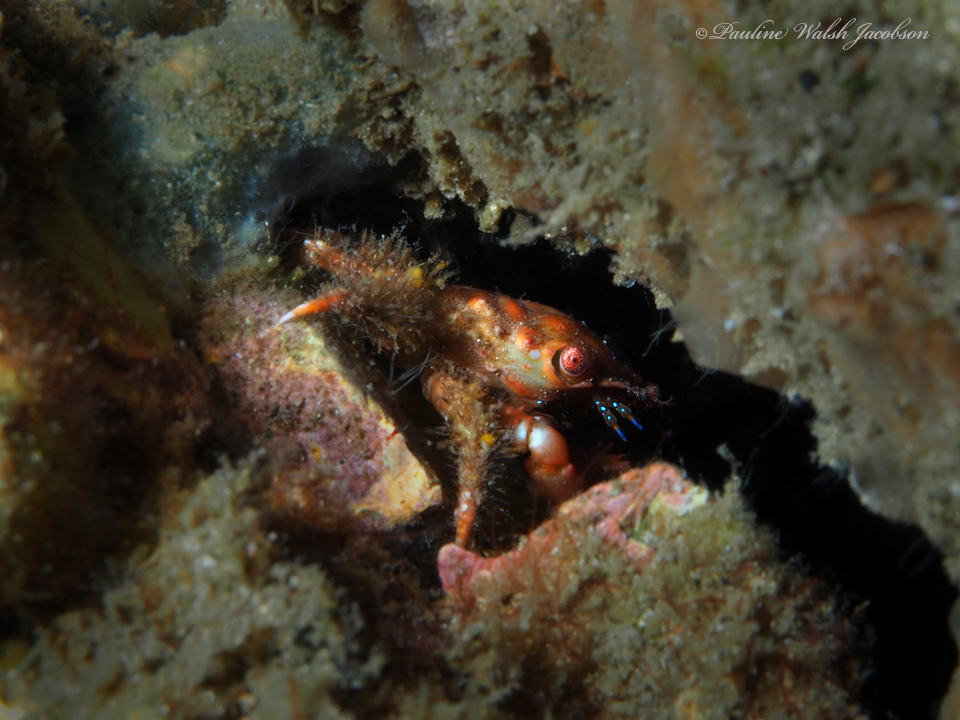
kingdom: Animalia
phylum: Arthropoda
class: Malacostraca
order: Decapoda
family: Mithracidae
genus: Mithraculus
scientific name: Mithraculus forceps
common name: Red-ridged clinging crab
